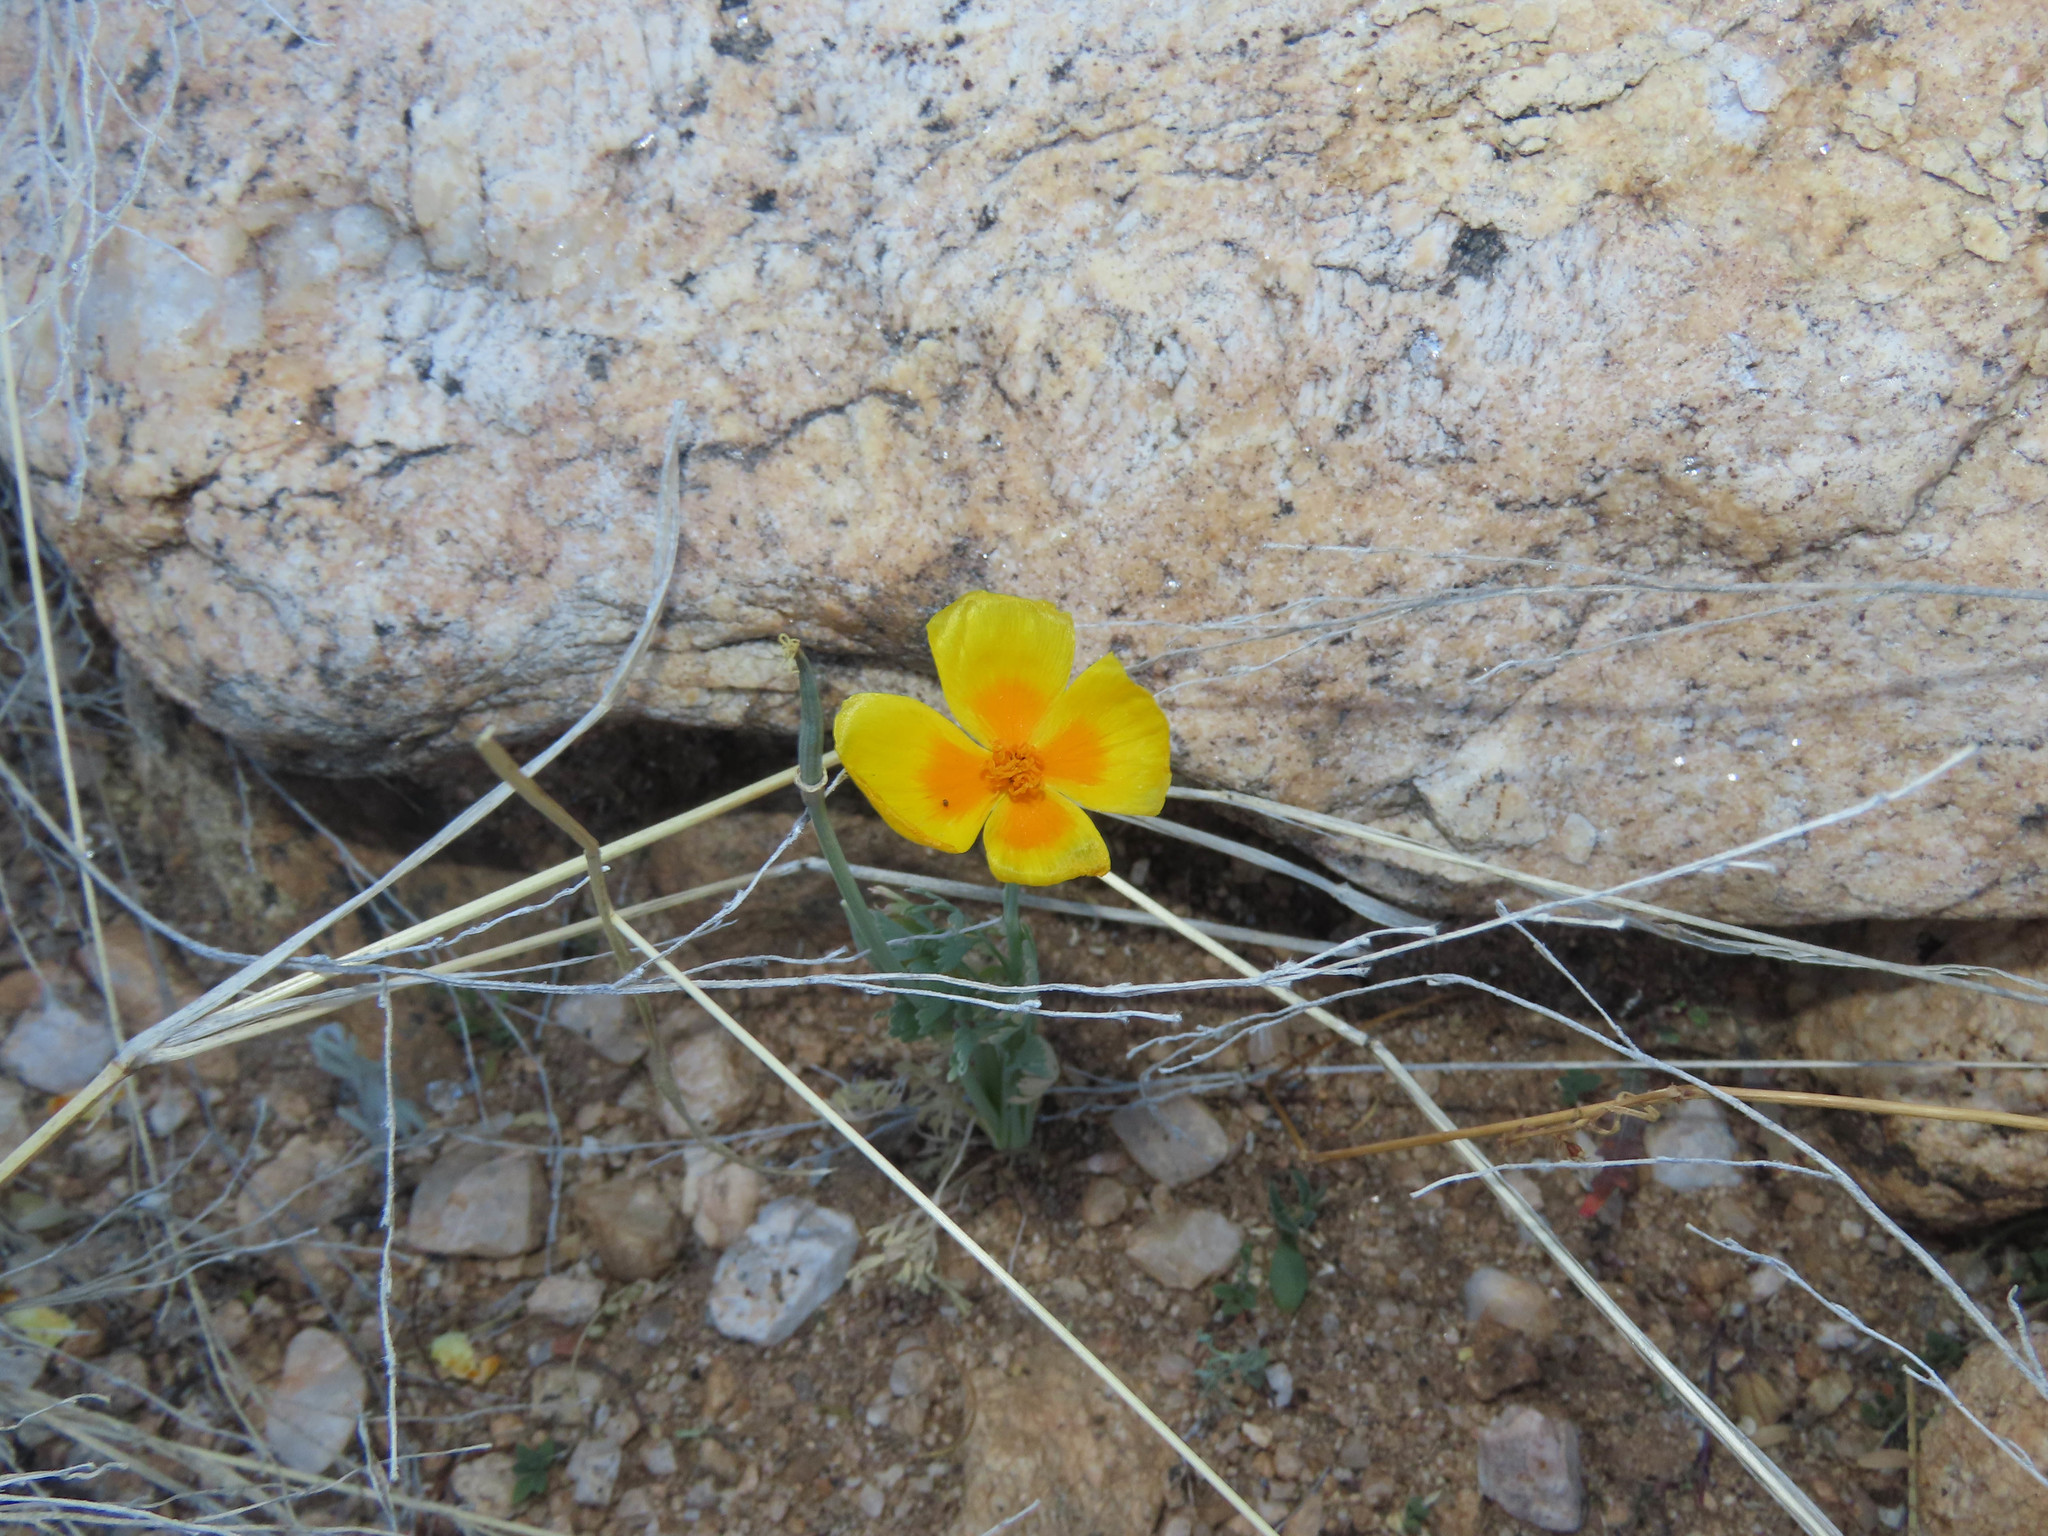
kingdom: Plantae
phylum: Tracheophyta
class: Magnoliopsida
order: Ranunculales
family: Papaveraceae
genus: Eschscholzia
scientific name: Eschscholzia californica
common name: California poppy
